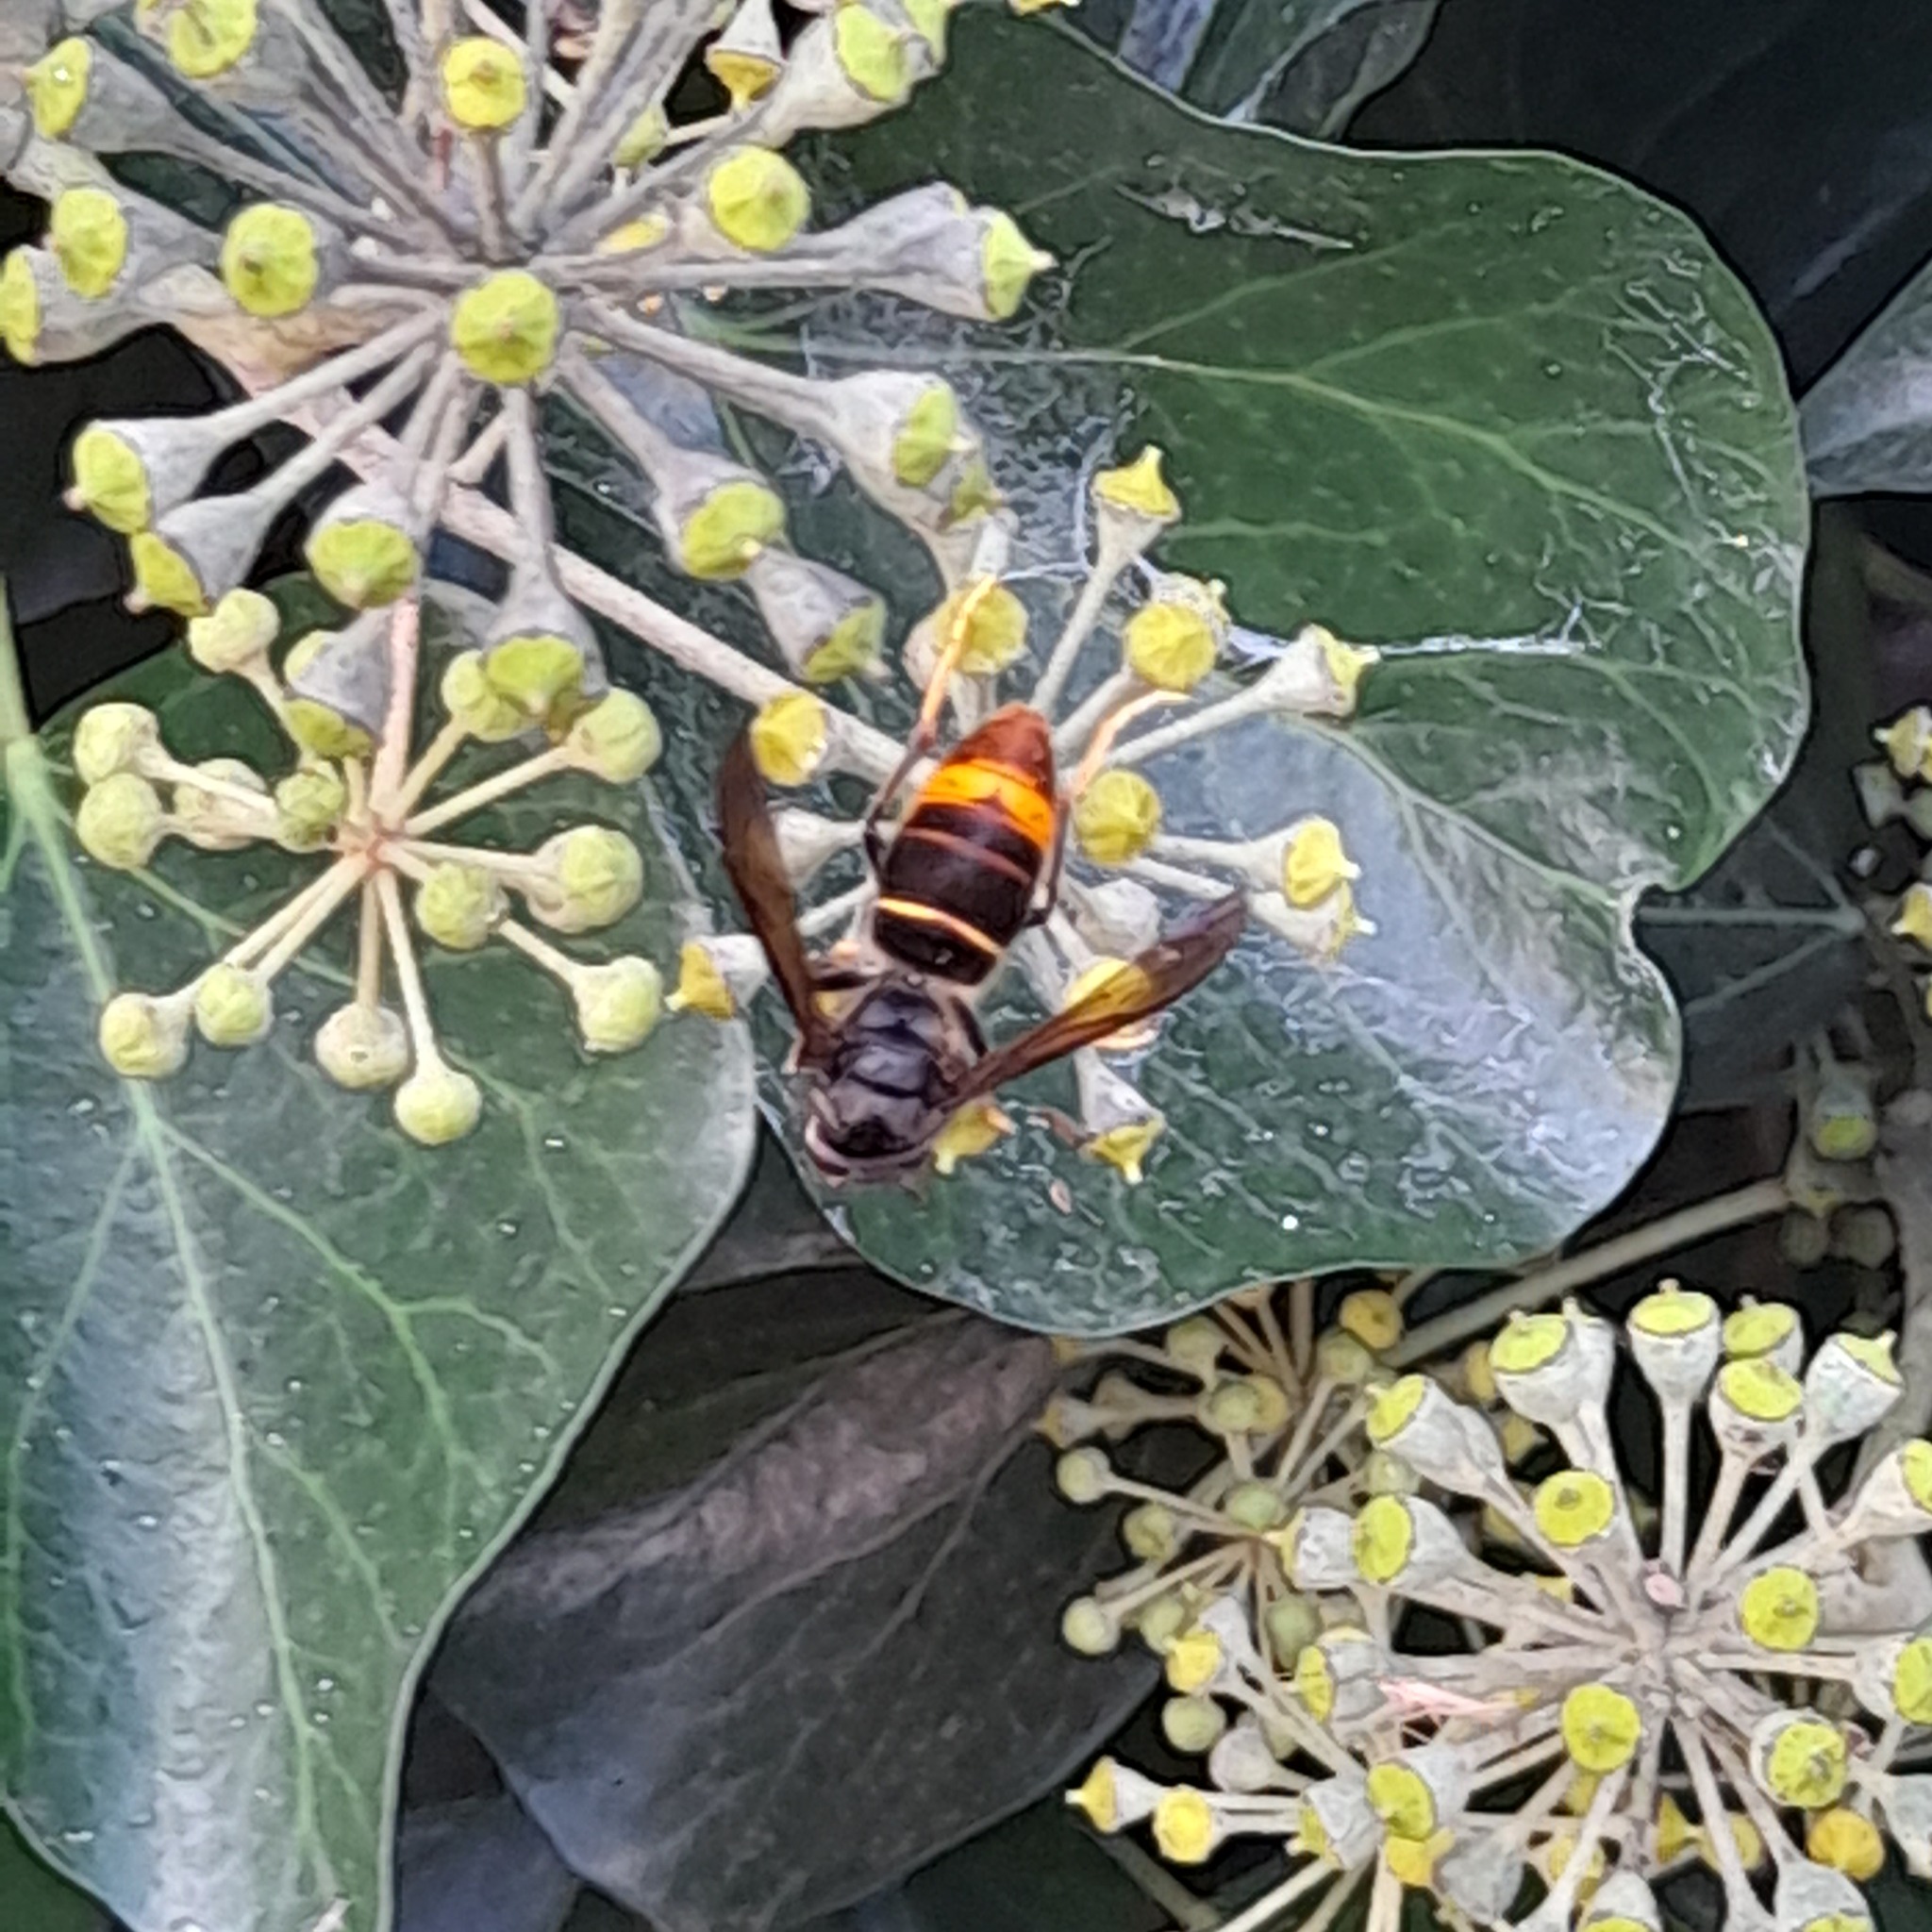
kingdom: Animalia
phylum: Arthropoda
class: Insecta
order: Hymenoptera
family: Vespidae
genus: Vespa
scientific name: Vespa velutina
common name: Asian hornet
